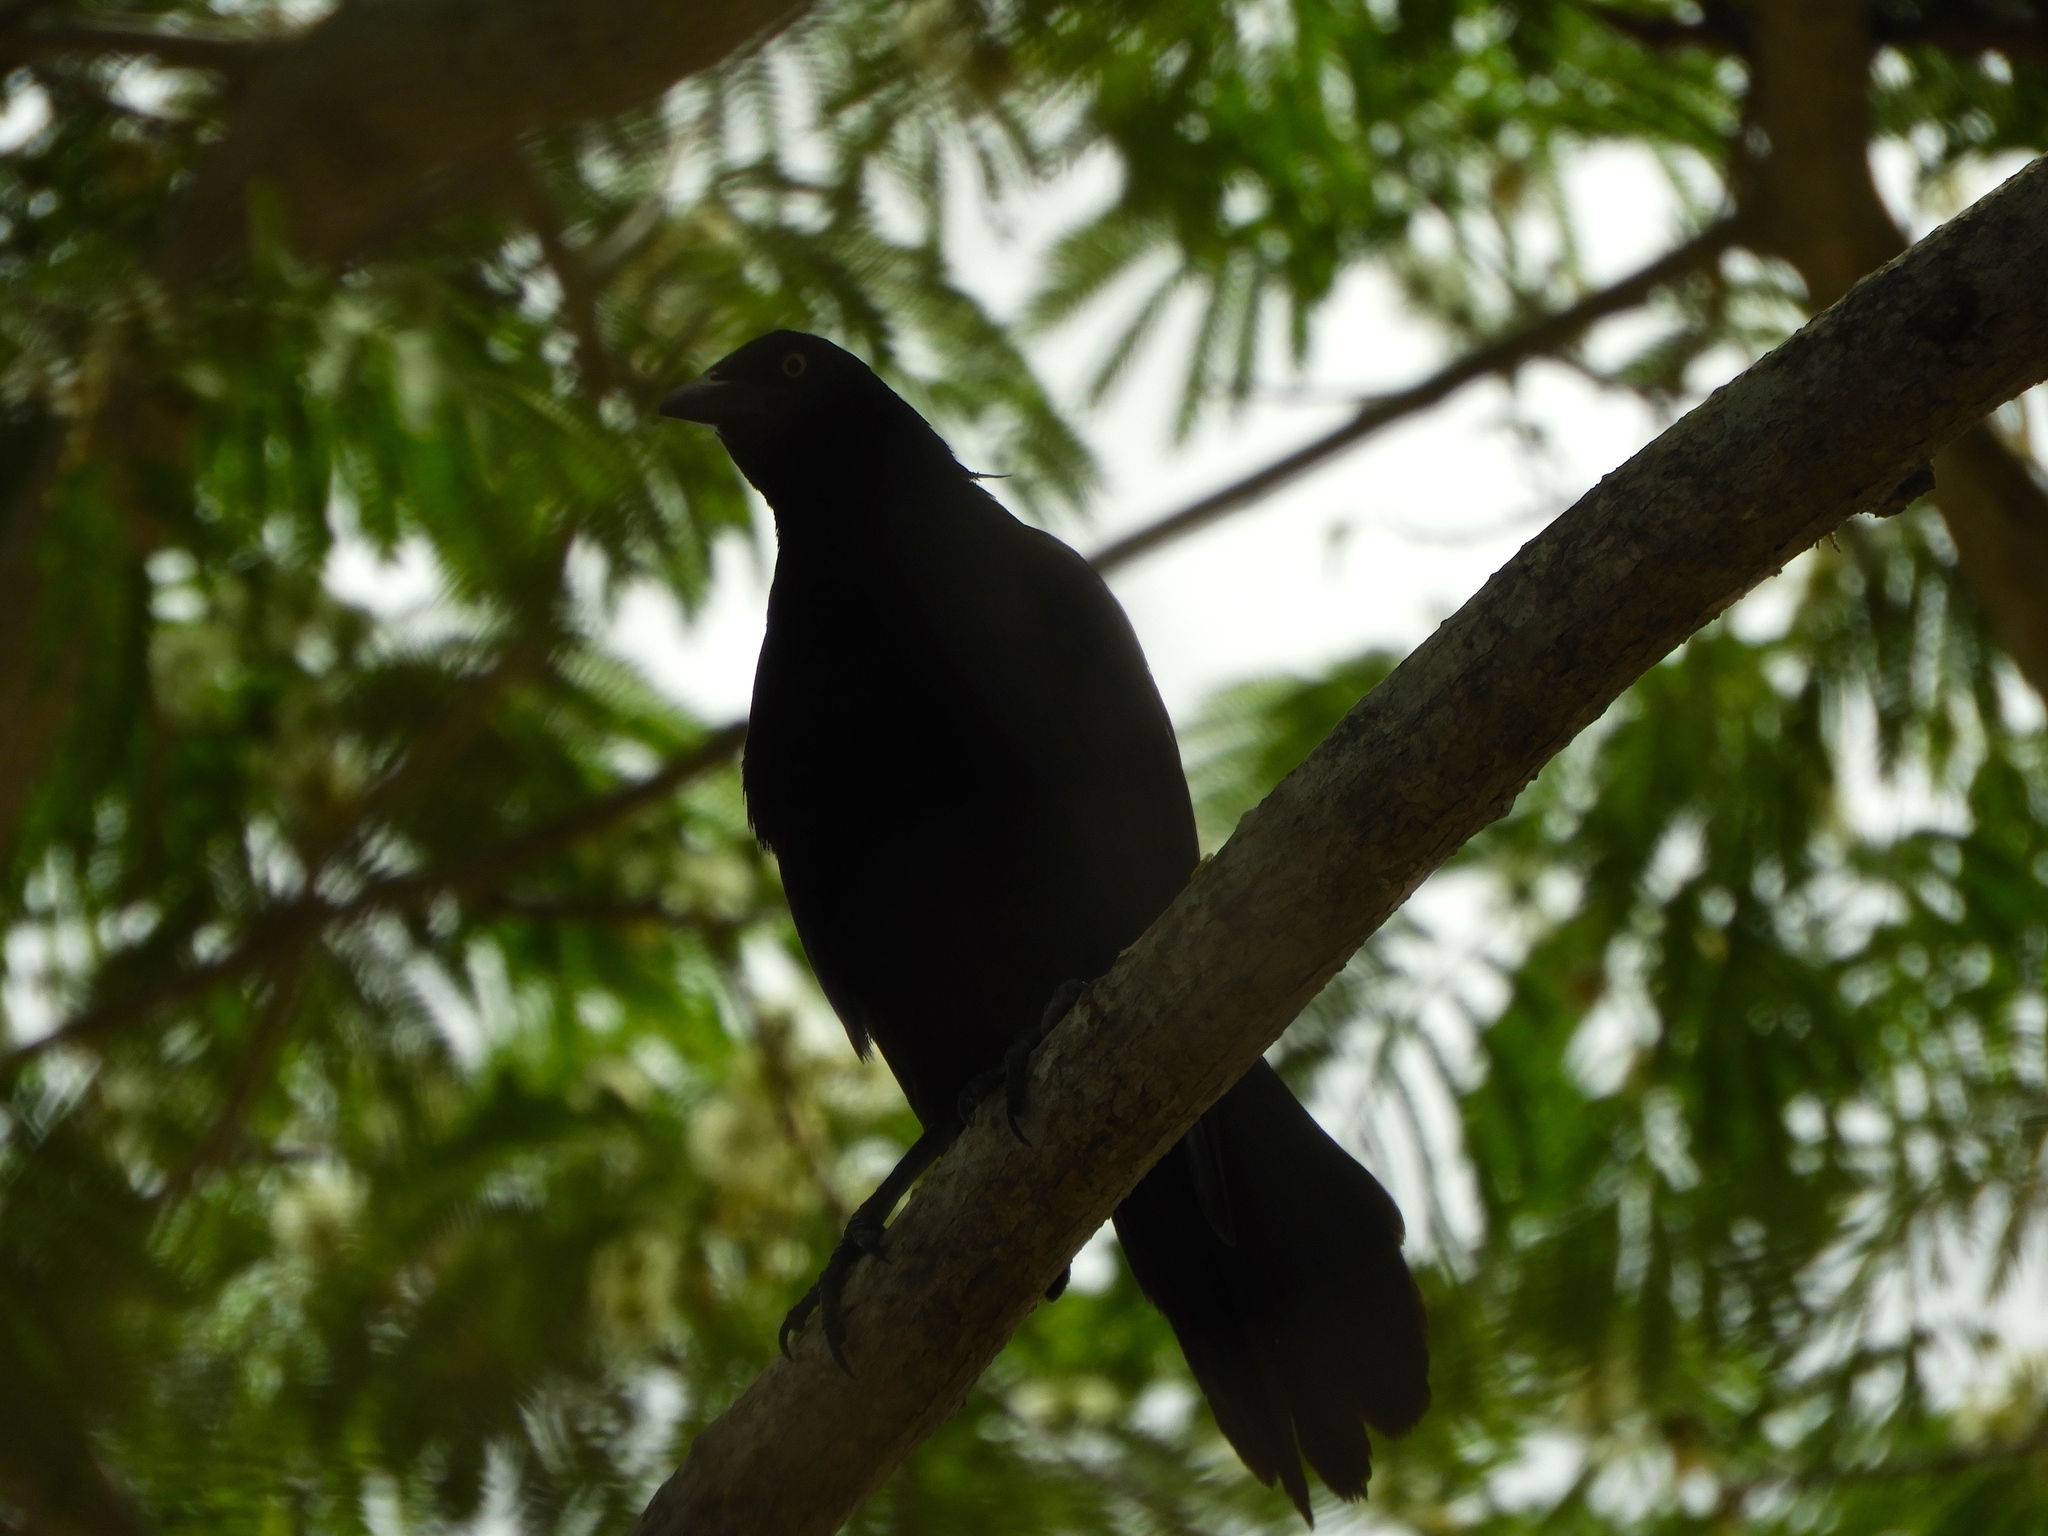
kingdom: Animalia
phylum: Chordata
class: Aves
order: Passeriformes
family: Icteridae
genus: Quiscalus
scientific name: Quiscalus mexicanus
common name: Great-tailed grackle
